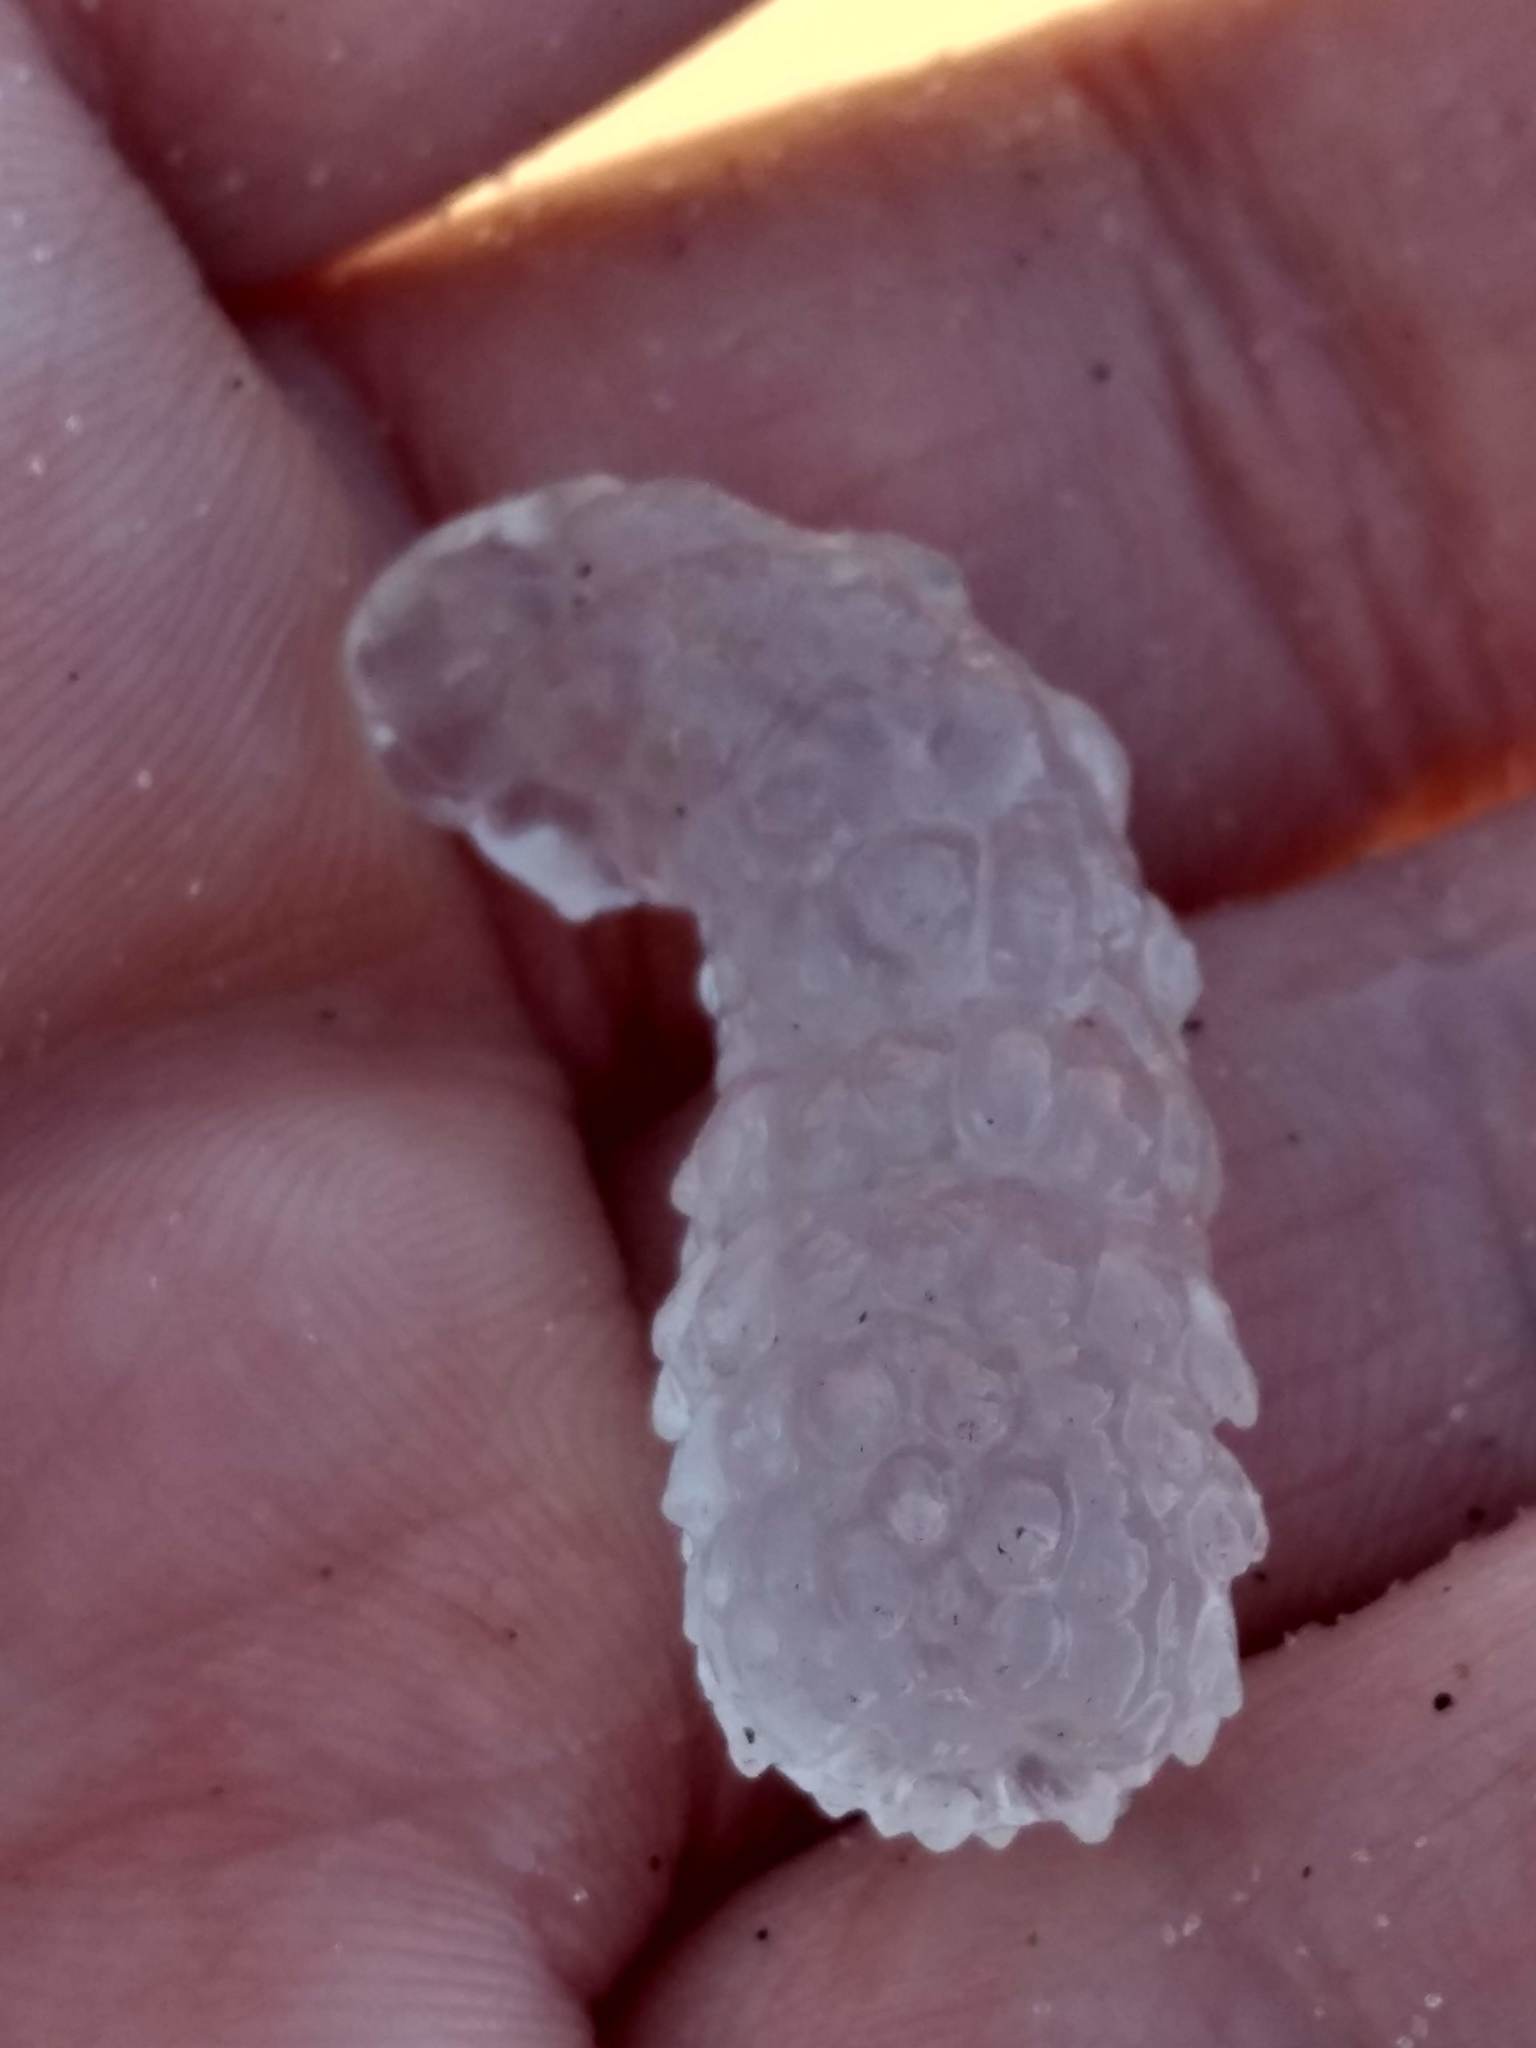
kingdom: Animalia
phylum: Chordata
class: Thaliacea
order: Pyrosomatida
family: Pyrosomatidae
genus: Pyrosoma
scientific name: Pyrosoma atlanticum
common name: Atlantic pyrosomes
